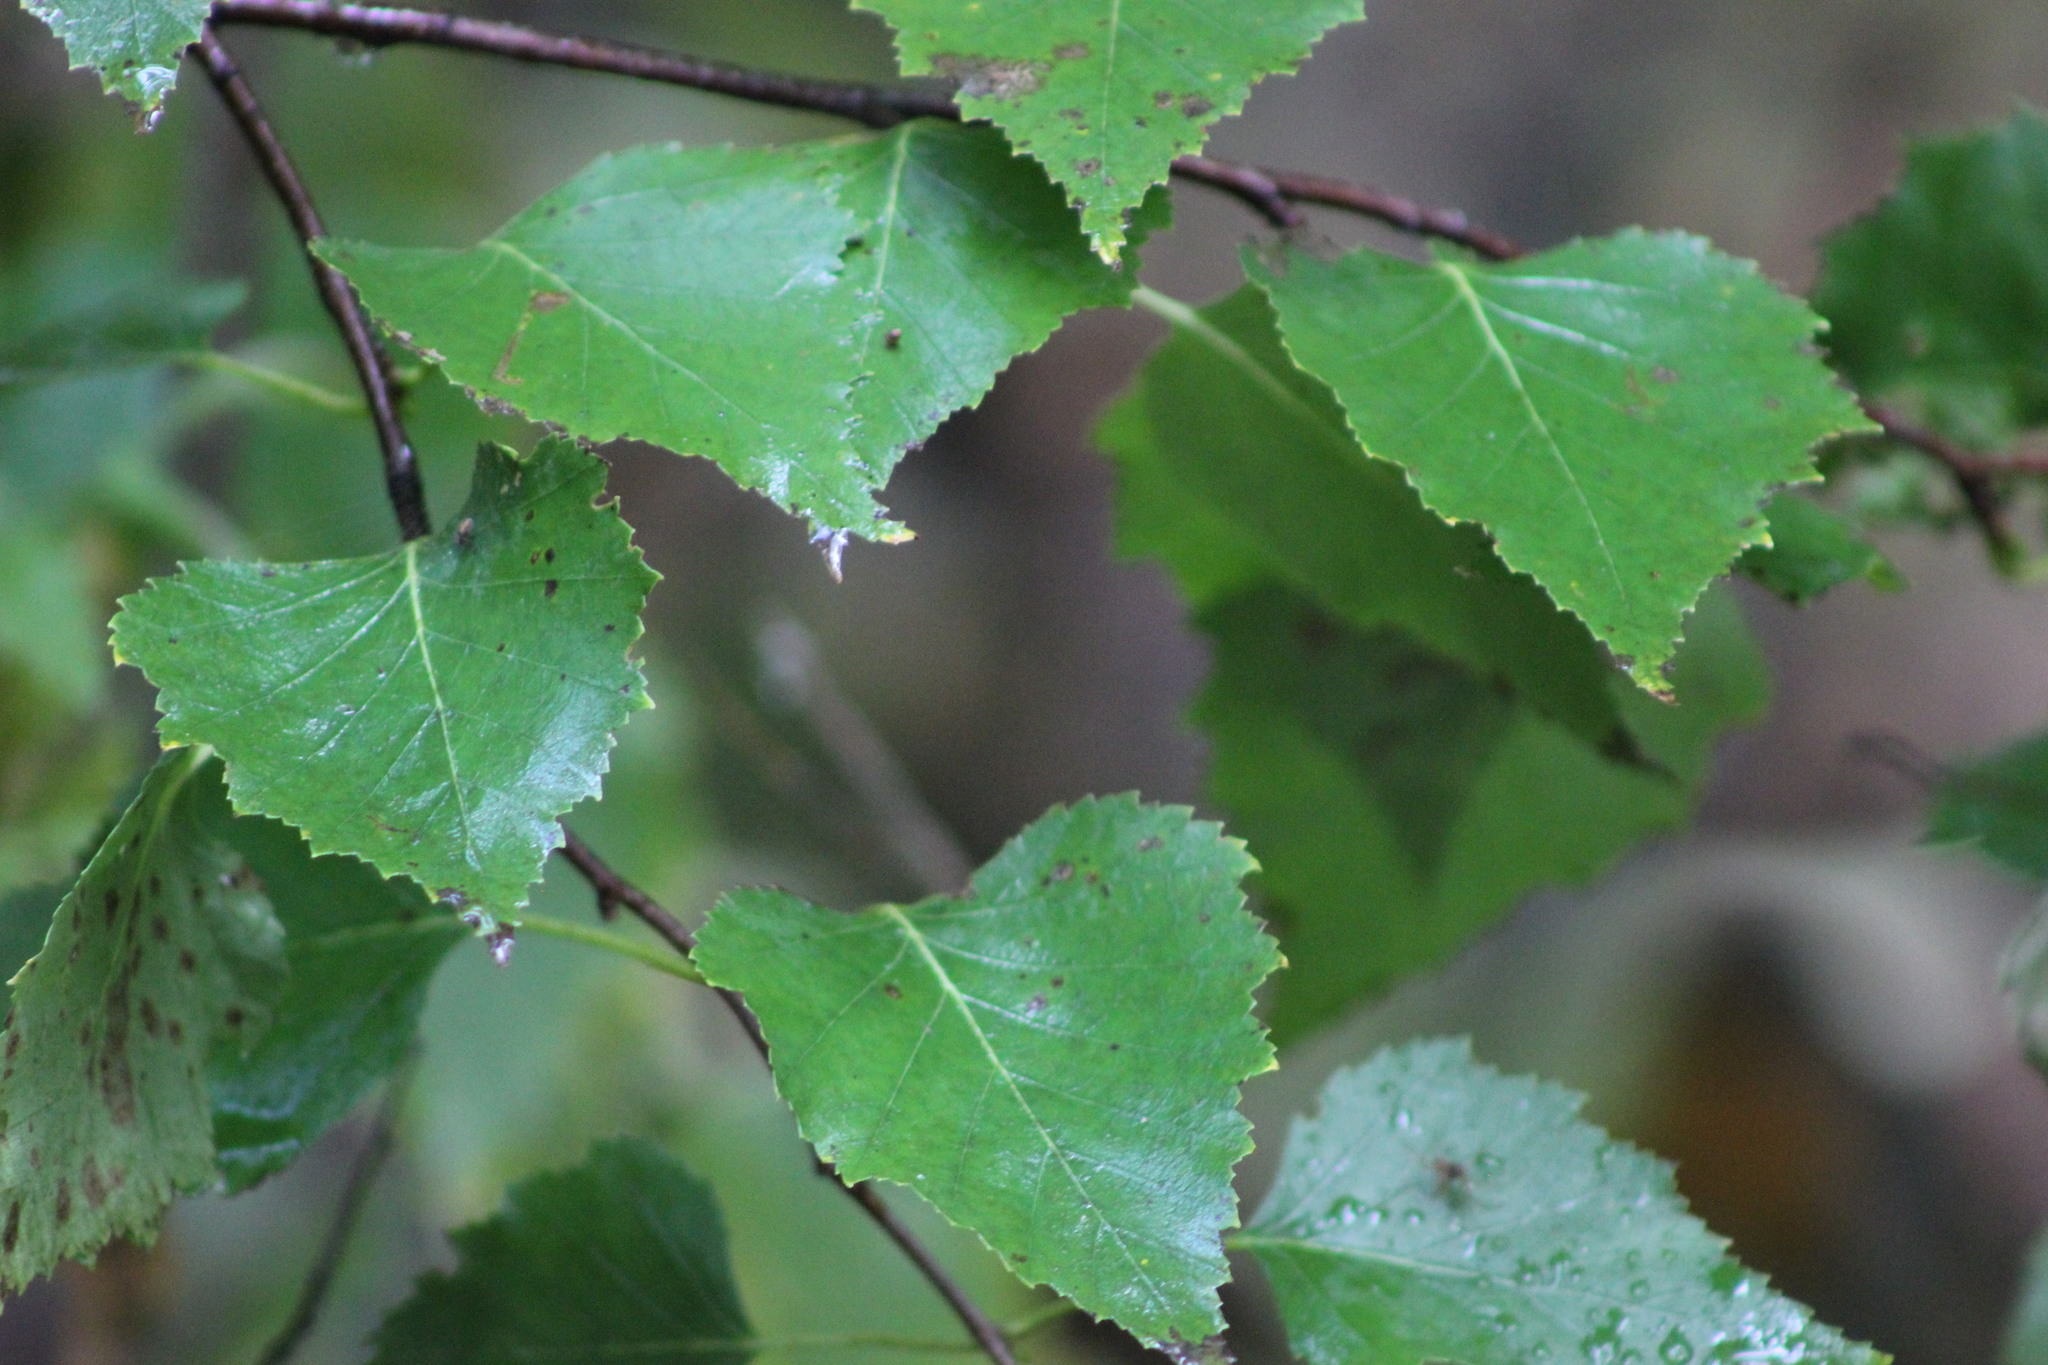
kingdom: Plantae
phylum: Tracheophyta
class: Magnoliopsida
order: Fagales
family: Betulaceae
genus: Betula
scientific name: Betula pendula
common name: Silver birch
